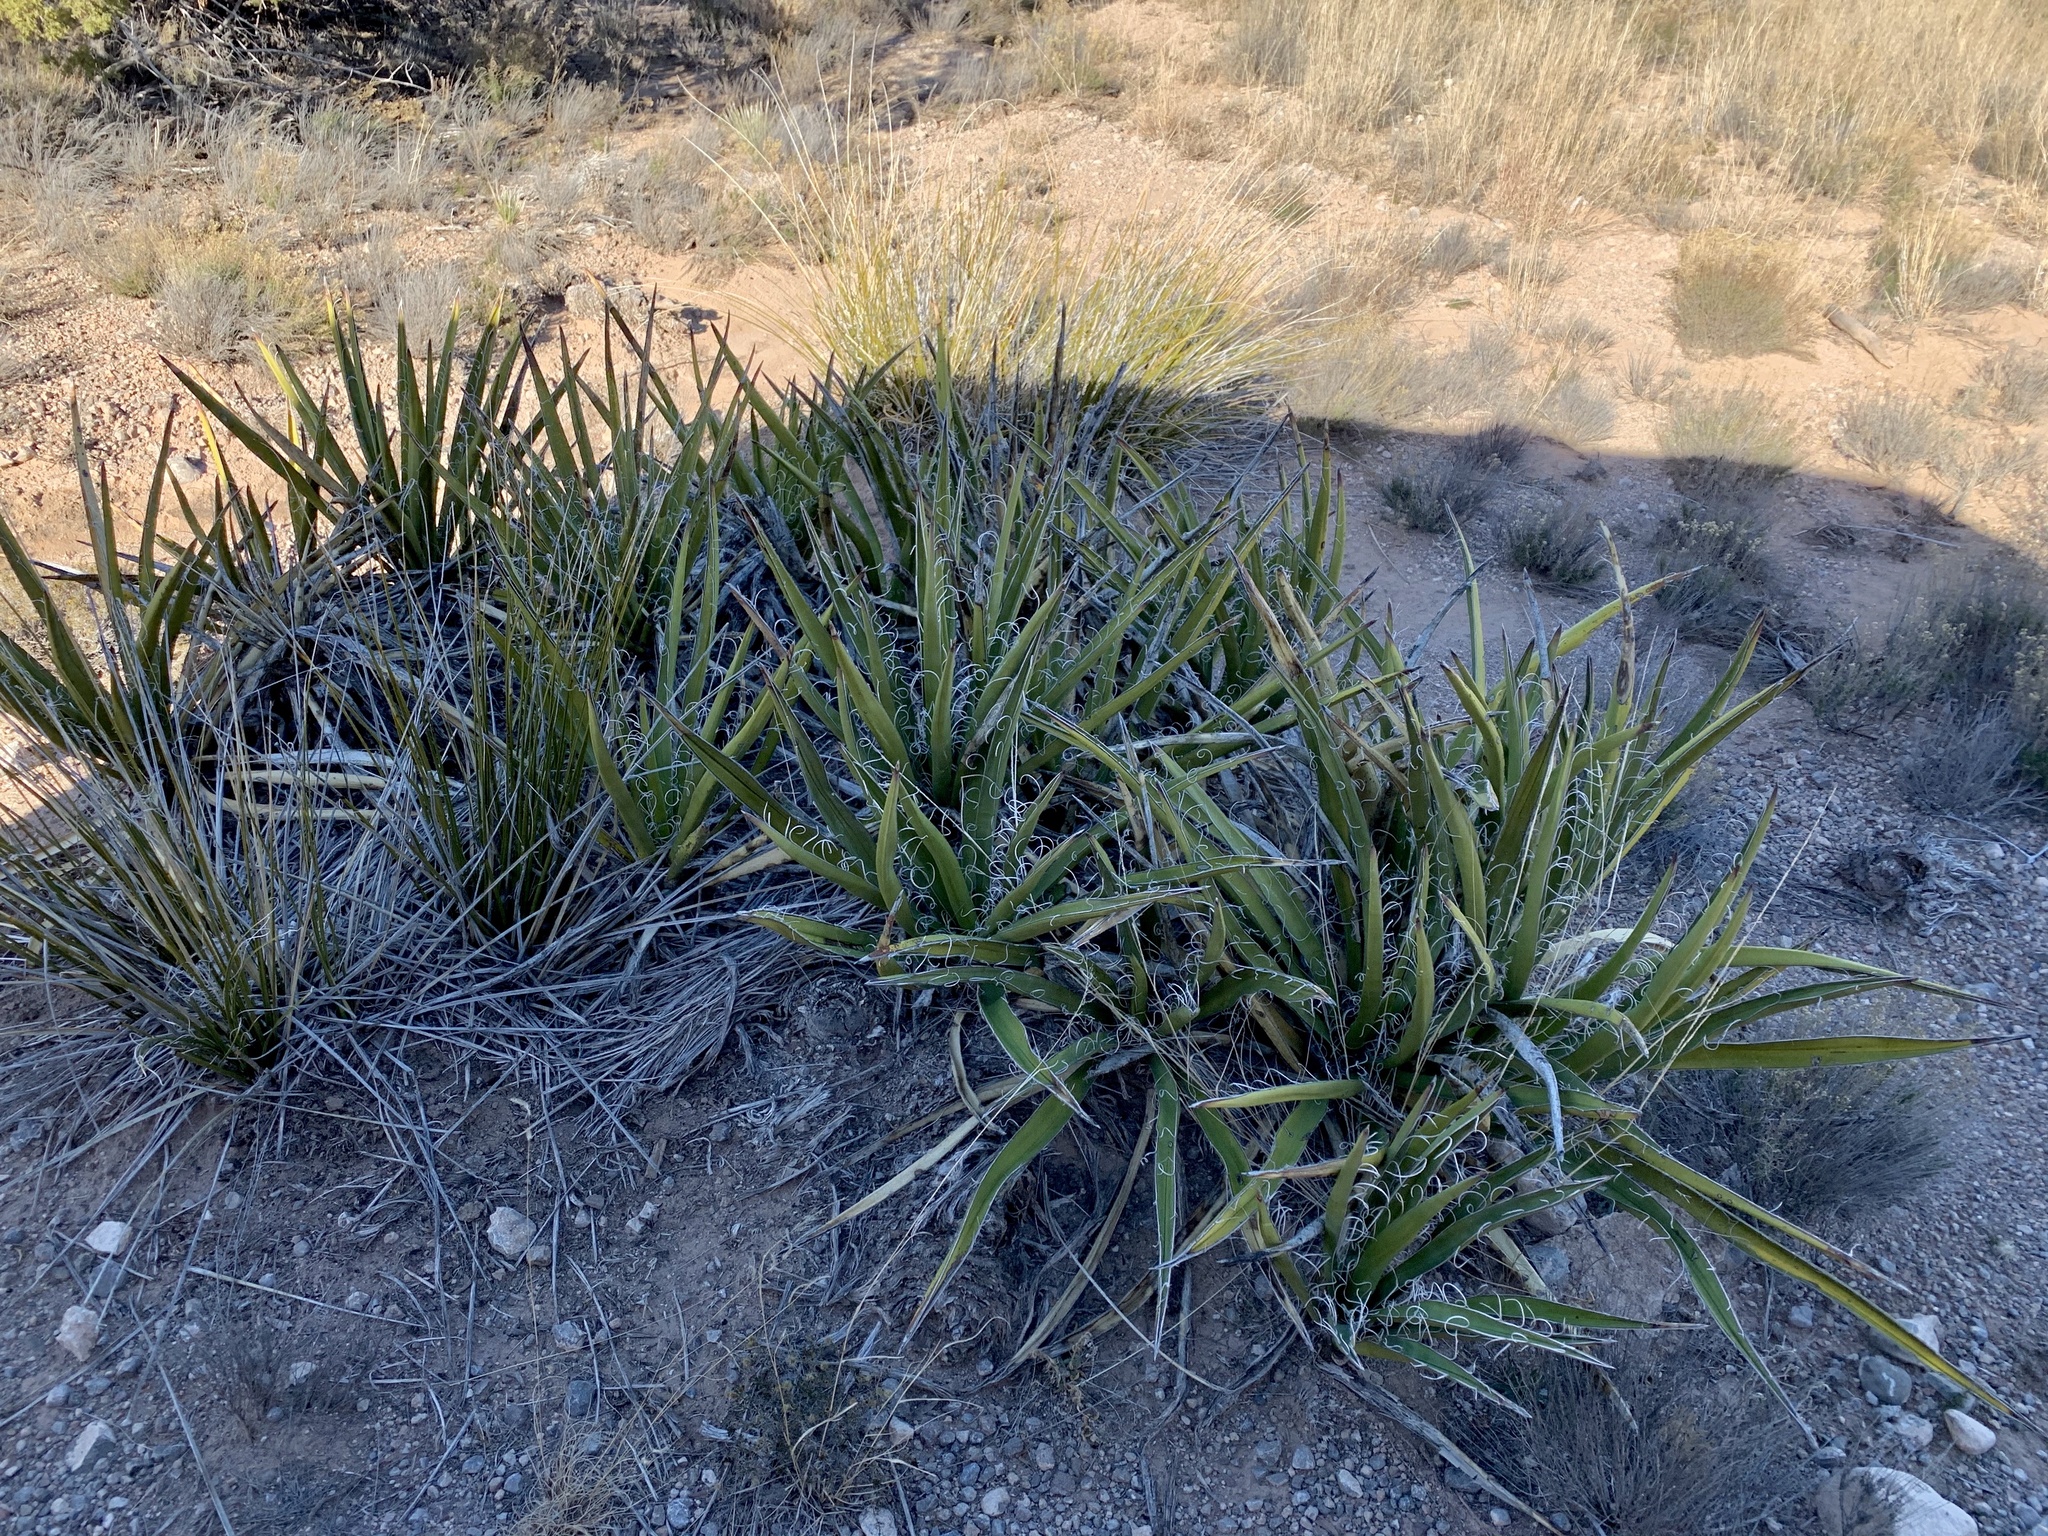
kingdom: Plantae
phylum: Tracheophyta
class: Liliopsida
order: Asparagales
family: Asparagaceae
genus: Yucca
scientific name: Yucca baccata
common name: Banana yucca
